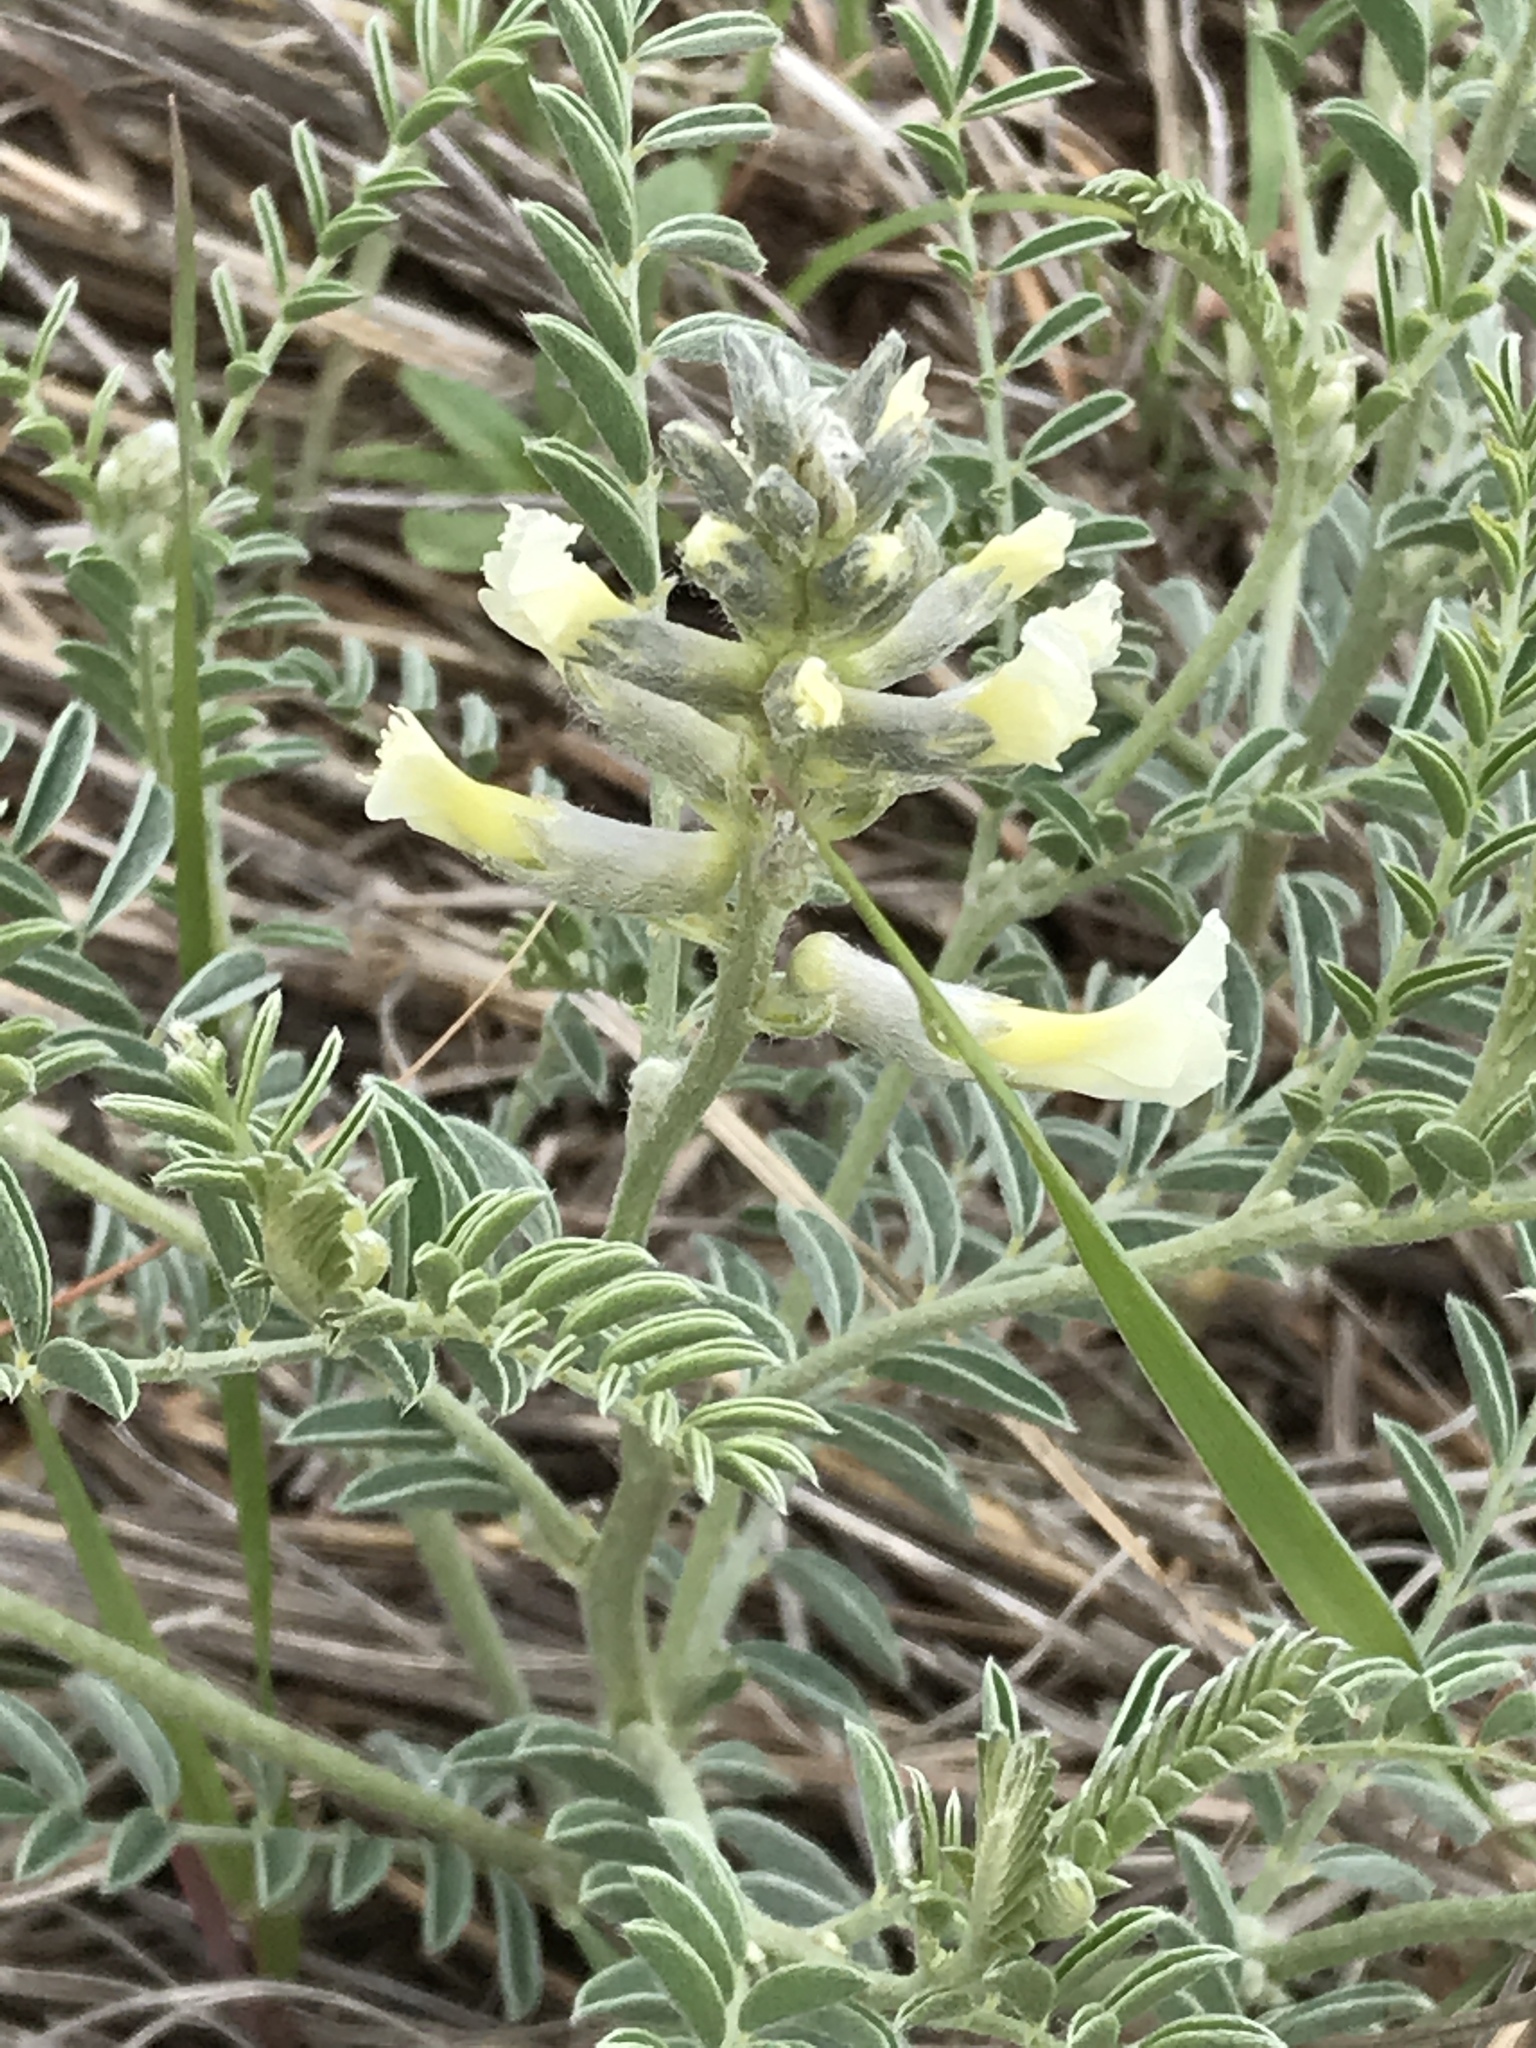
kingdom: Plantae
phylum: Tracheophyta
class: Magnoliopsida
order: Fabales
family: Fabaceae
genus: Sophora
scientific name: Sophora nuttalliana
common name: Silky sophora
